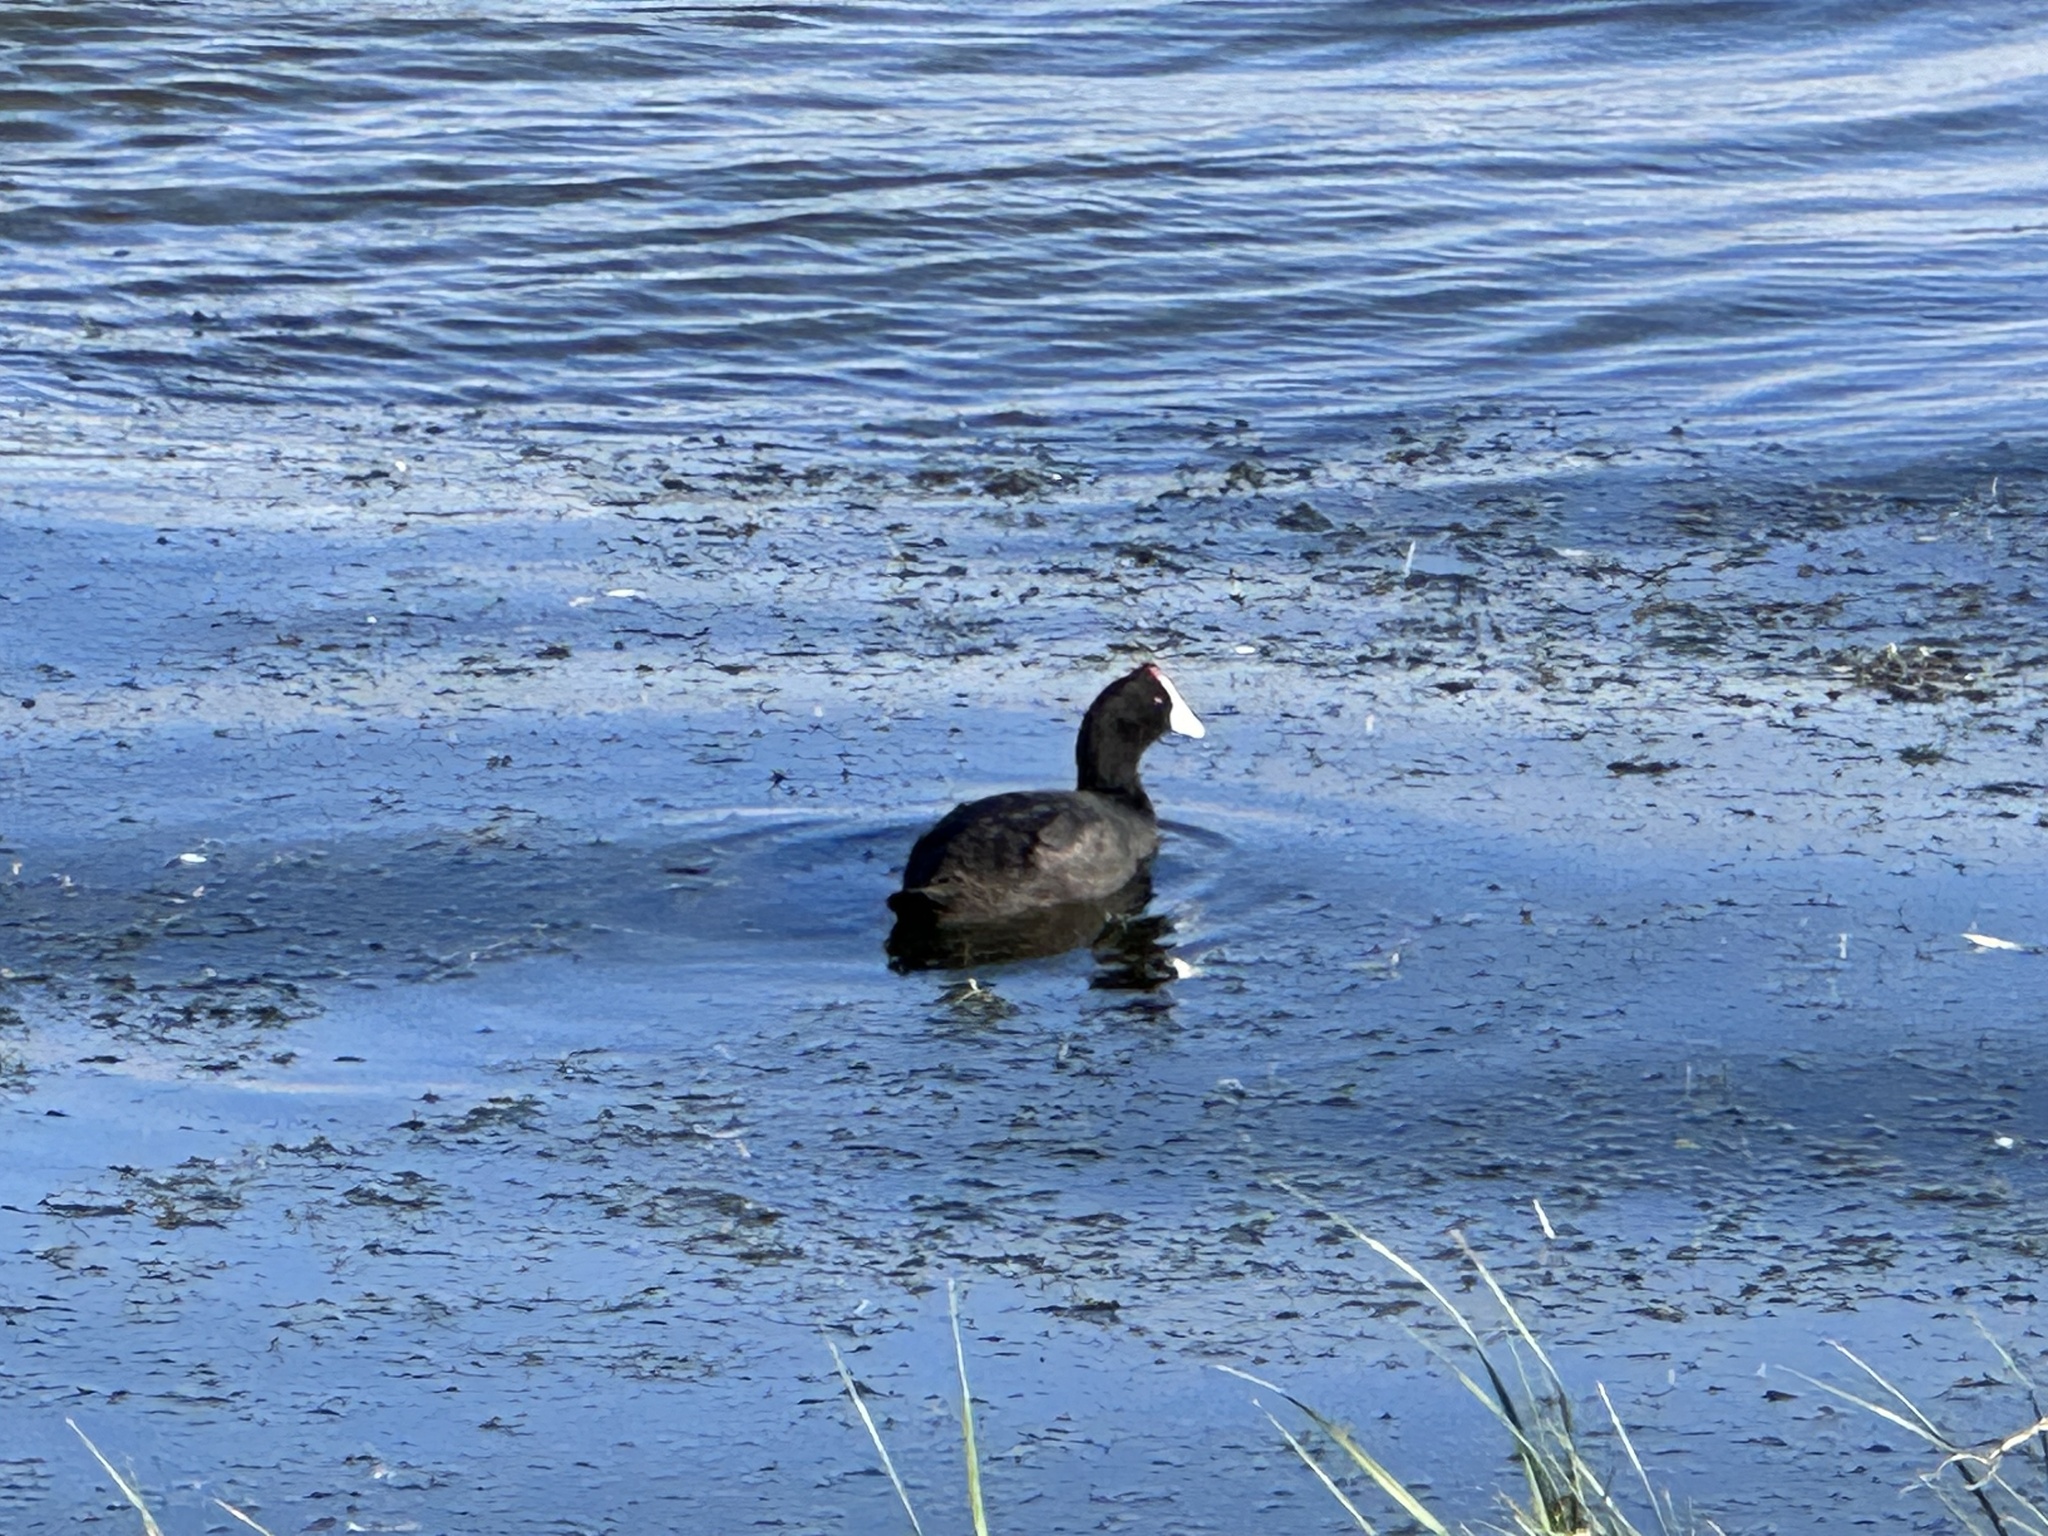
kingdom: Animalia
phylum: Chordata
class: Aves
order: Gruiformes
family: Rallidae
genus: Fulica
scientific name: Fulica cristata
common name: Red-knobbed coot
